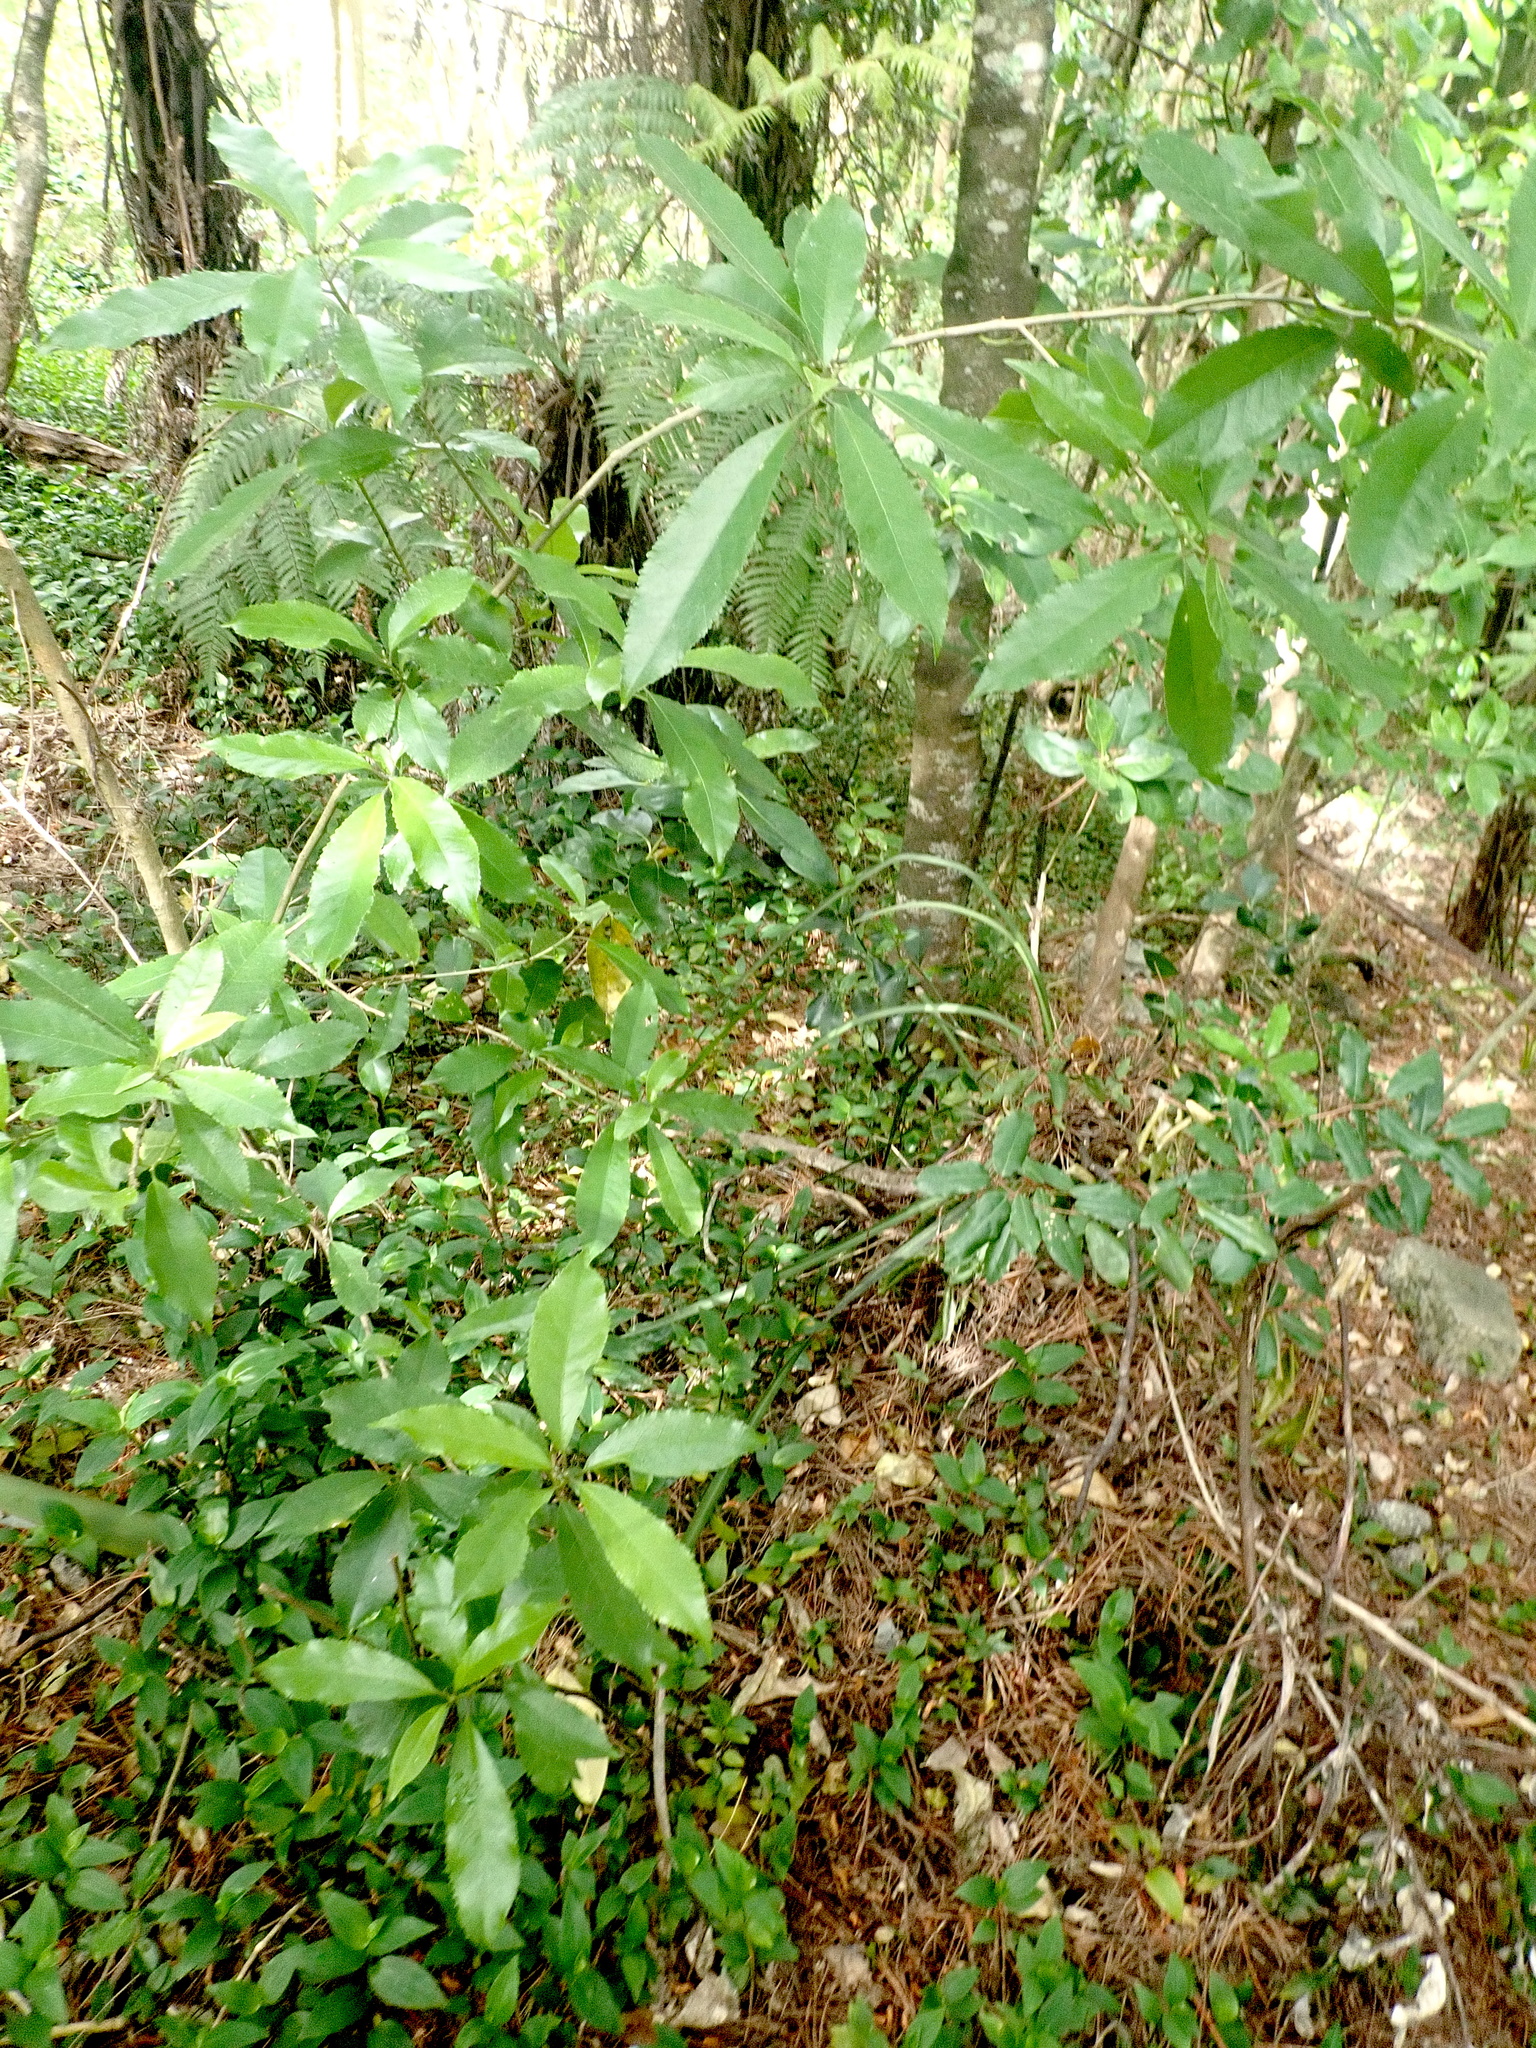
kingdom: Plantae
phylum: Tracheophyta
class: Magnoliopsida
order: Malpighiales
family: Violaceae
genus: Melicytus
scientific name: Melicytus ramiflorus
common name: Mahoe
